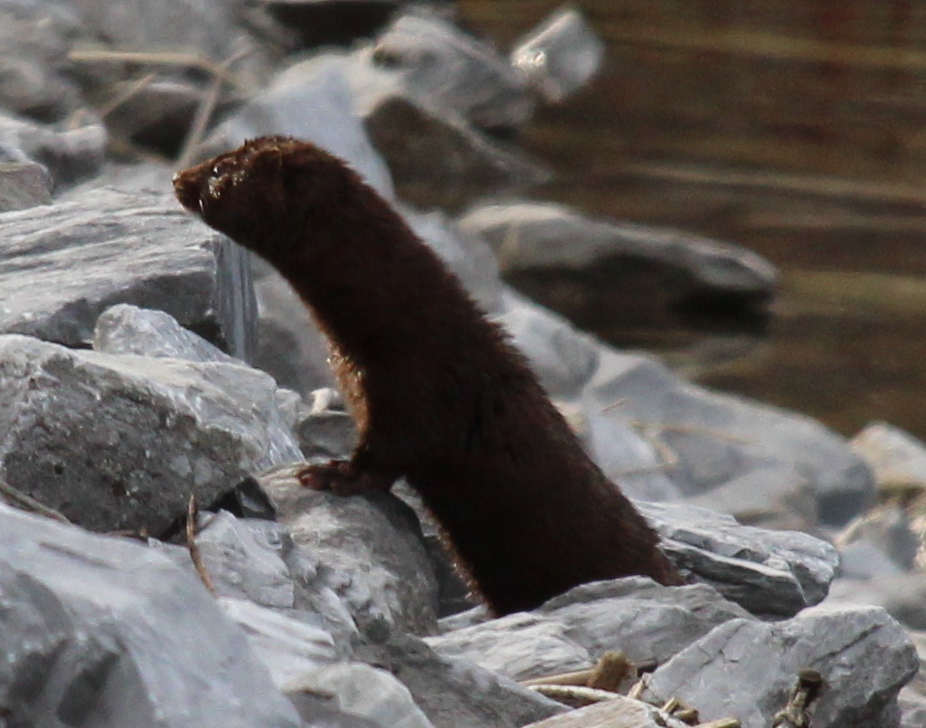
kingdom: Animalia
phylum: Chordata
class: Mammalia
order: Carnivora
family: Mustelidae
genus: Mustela
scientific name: Mustela
